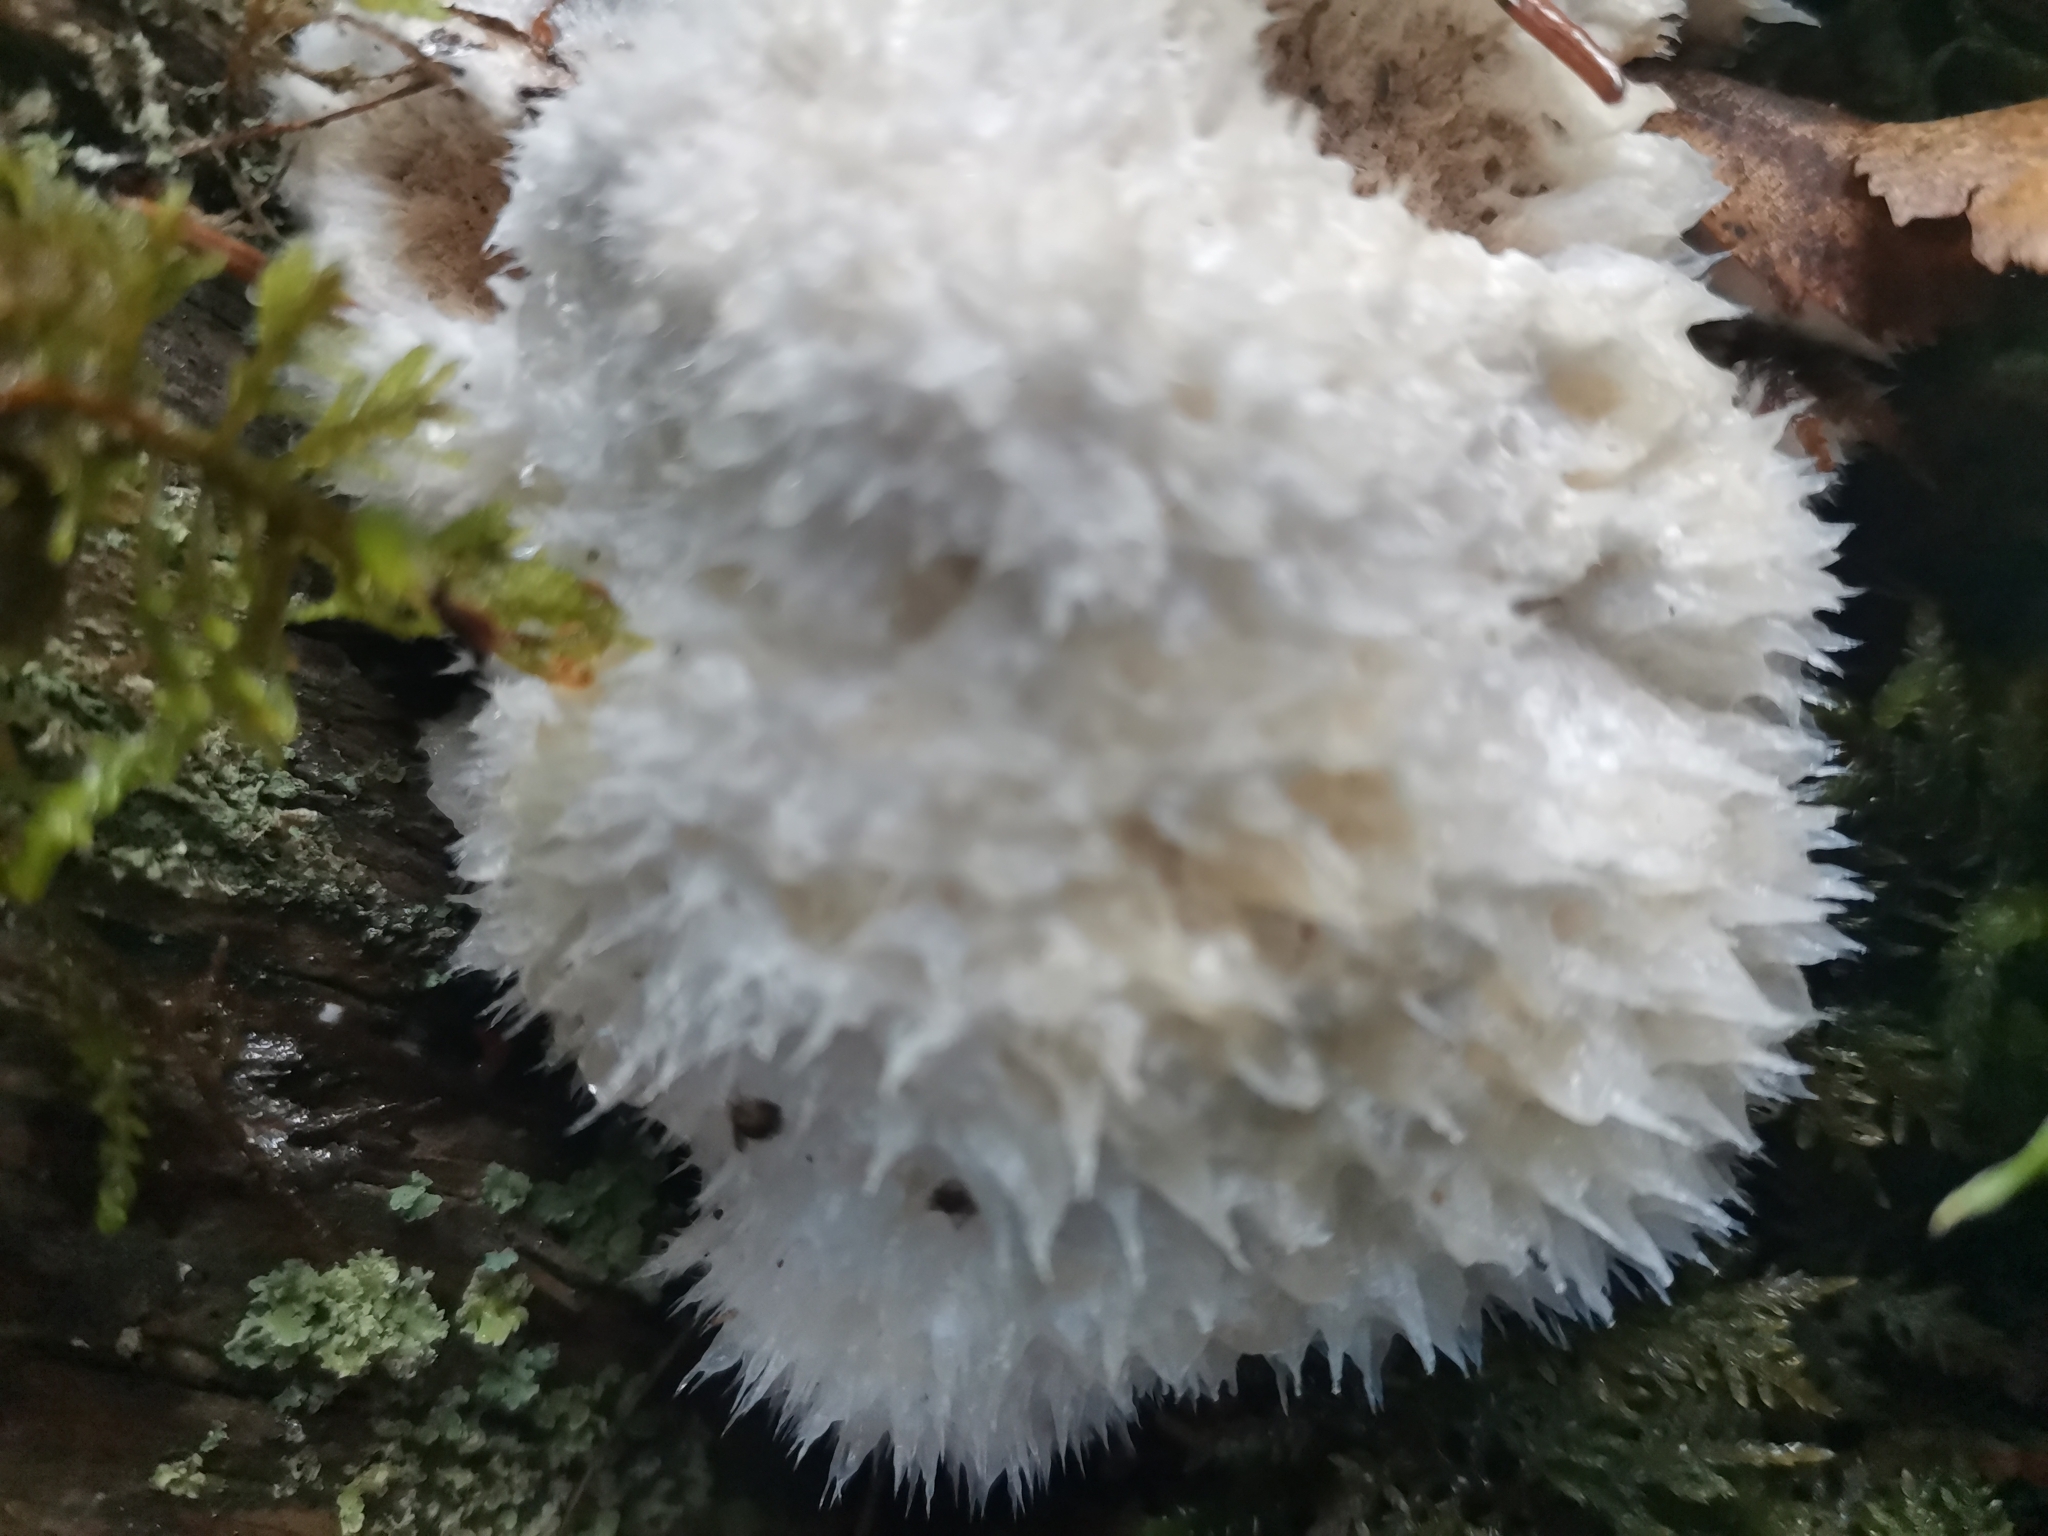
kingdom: Fungi
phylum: Basidiomycota
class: Agaricomycetes
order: Polyporales
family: Dacryobolaceae
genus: Postia
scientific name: Postia ptychogaster
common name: Powderpuff bracket
